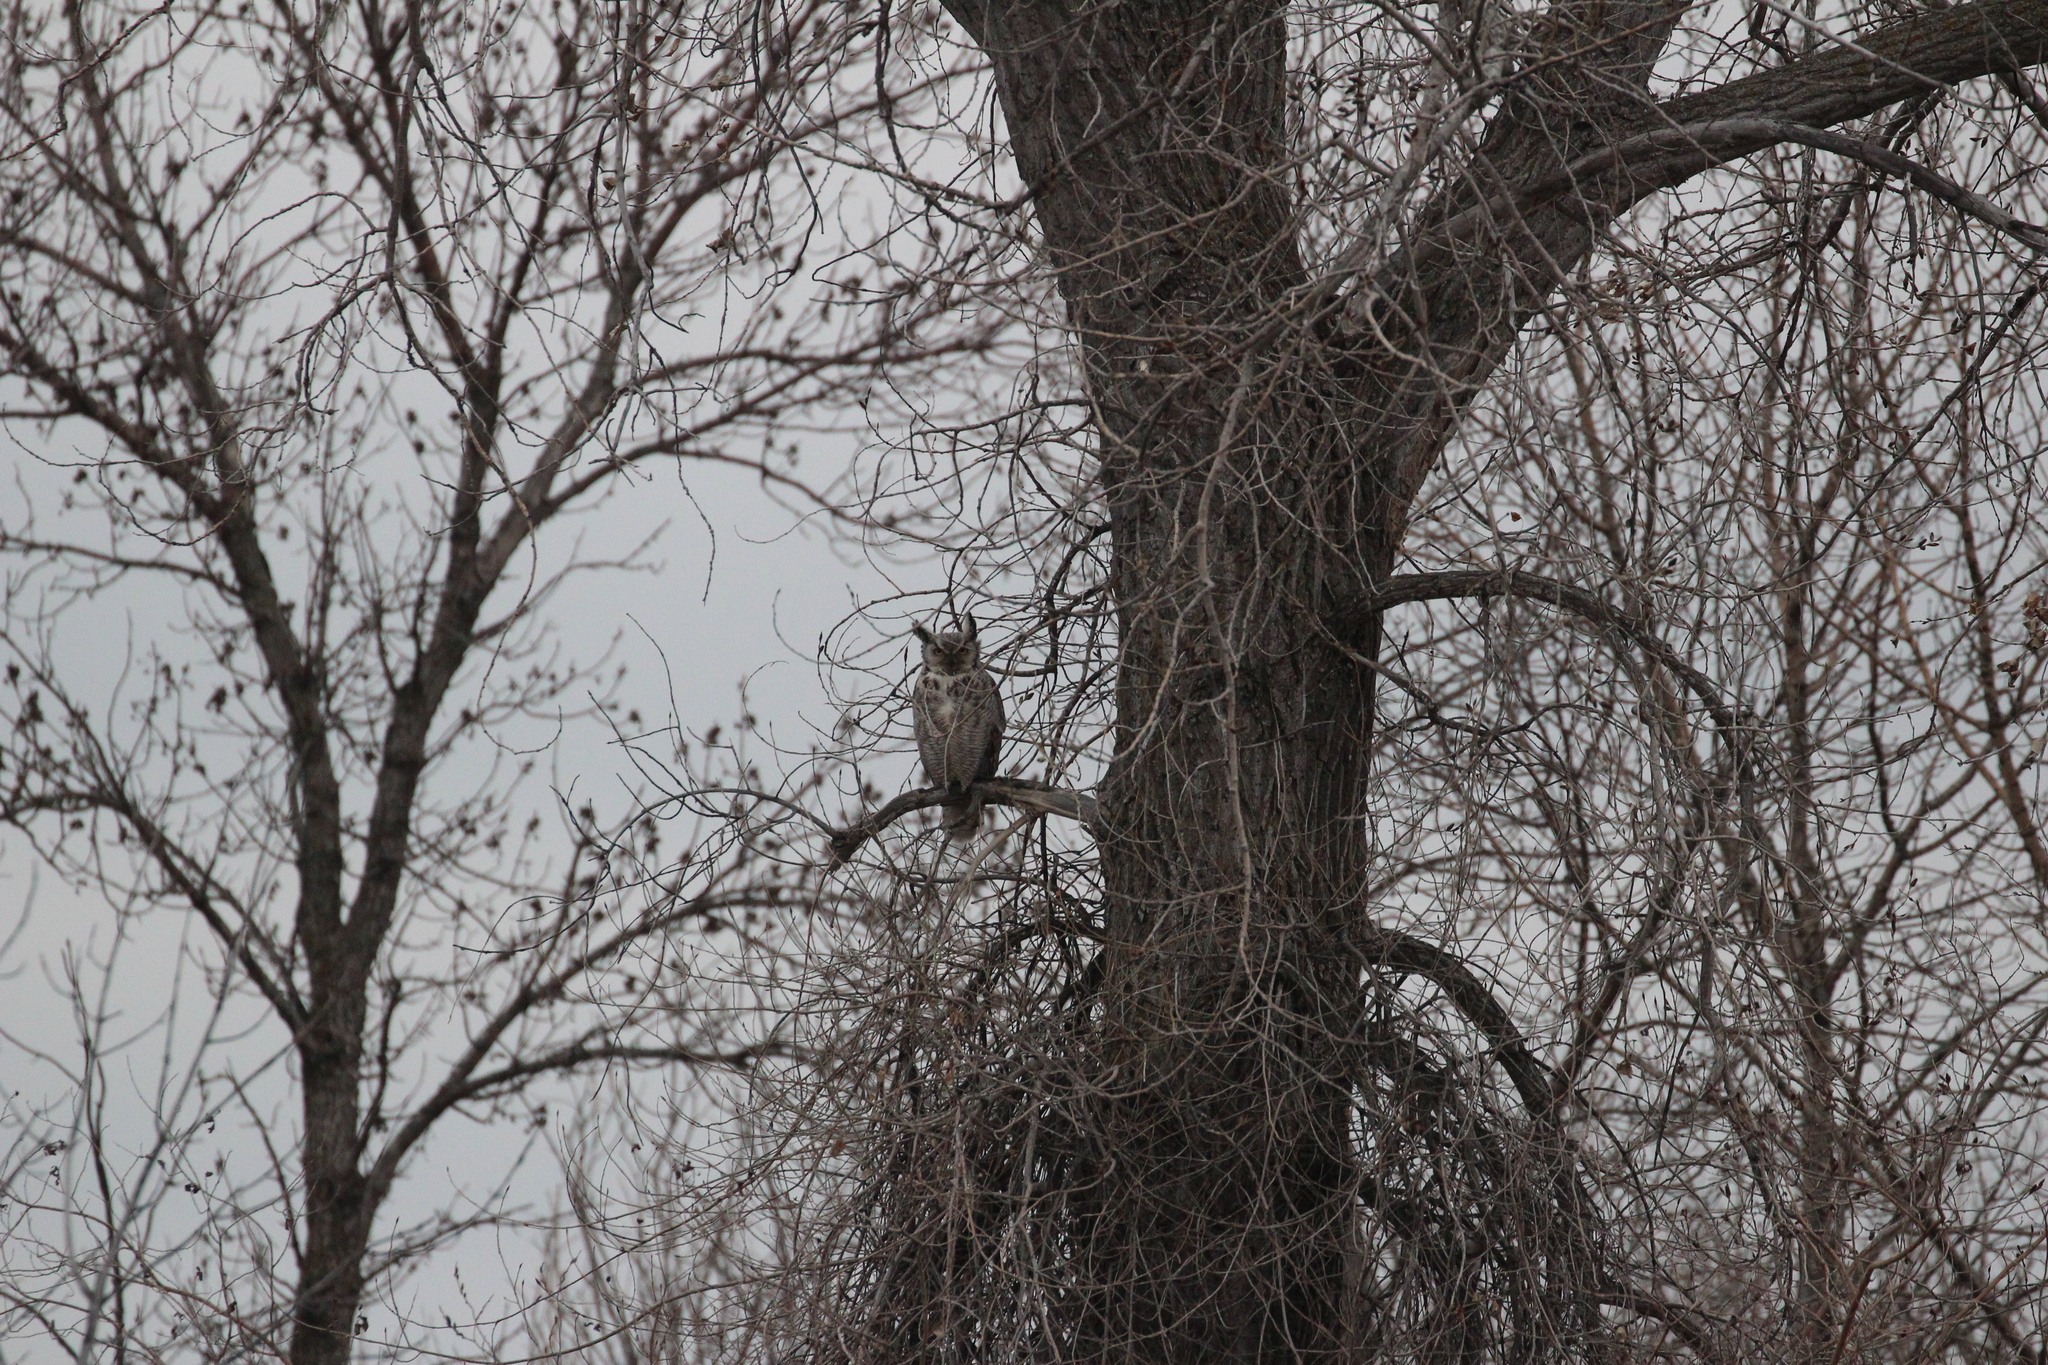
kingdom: Animalia
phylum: Chordata
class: Aves
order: Strigiformes
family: Strigidae
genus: Bubo
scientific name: Bubo virginianus
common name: Great horned owl
